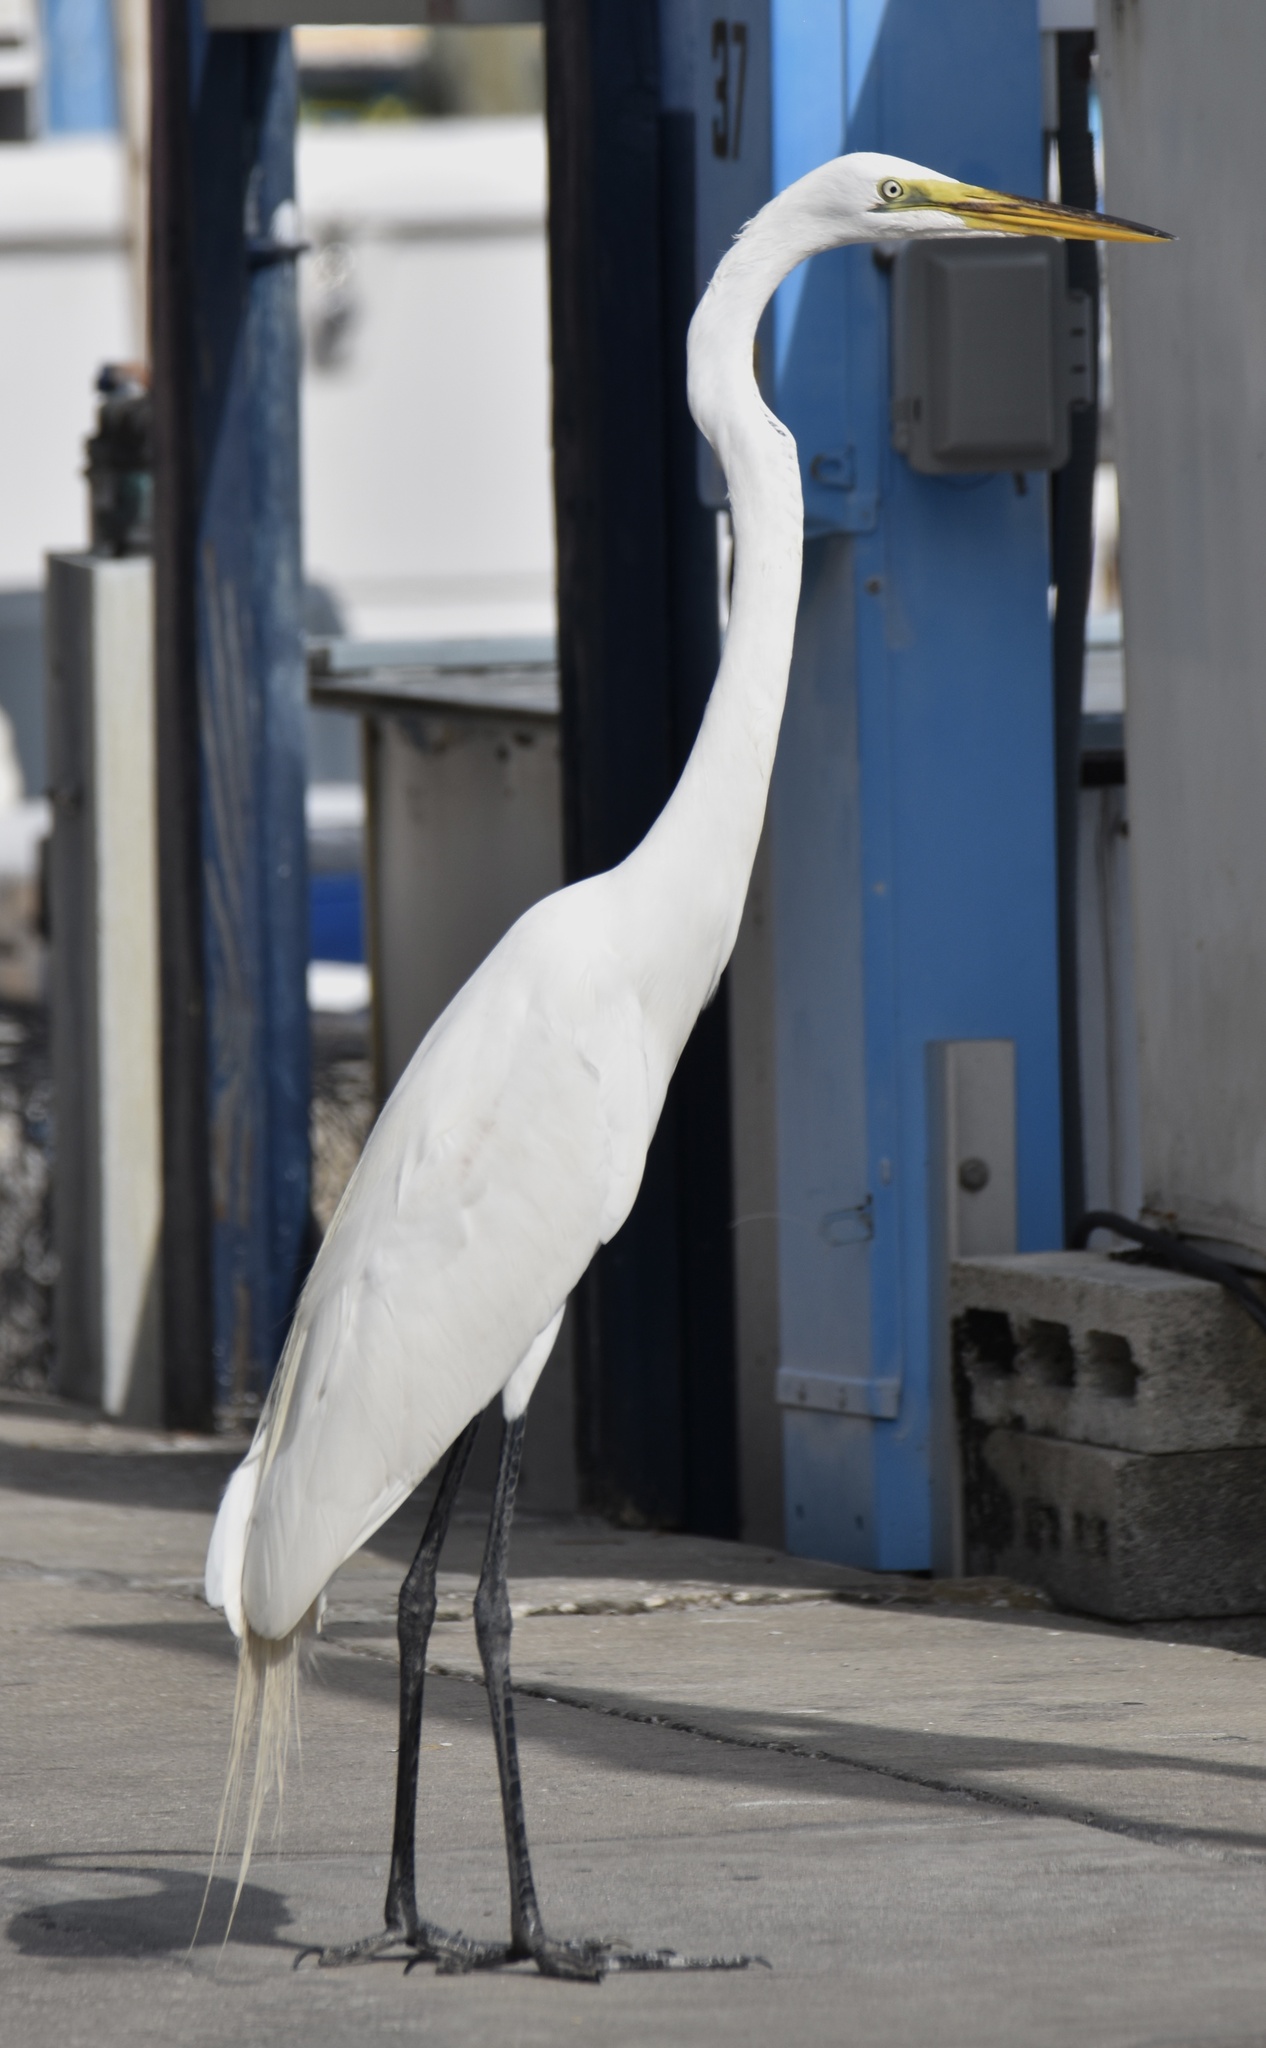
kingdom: Animalia
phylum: Chordata
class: Aves
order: Pelecaniformes
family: Ardeidae
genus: Ardea
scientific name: Ardea alba
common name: Great egret
